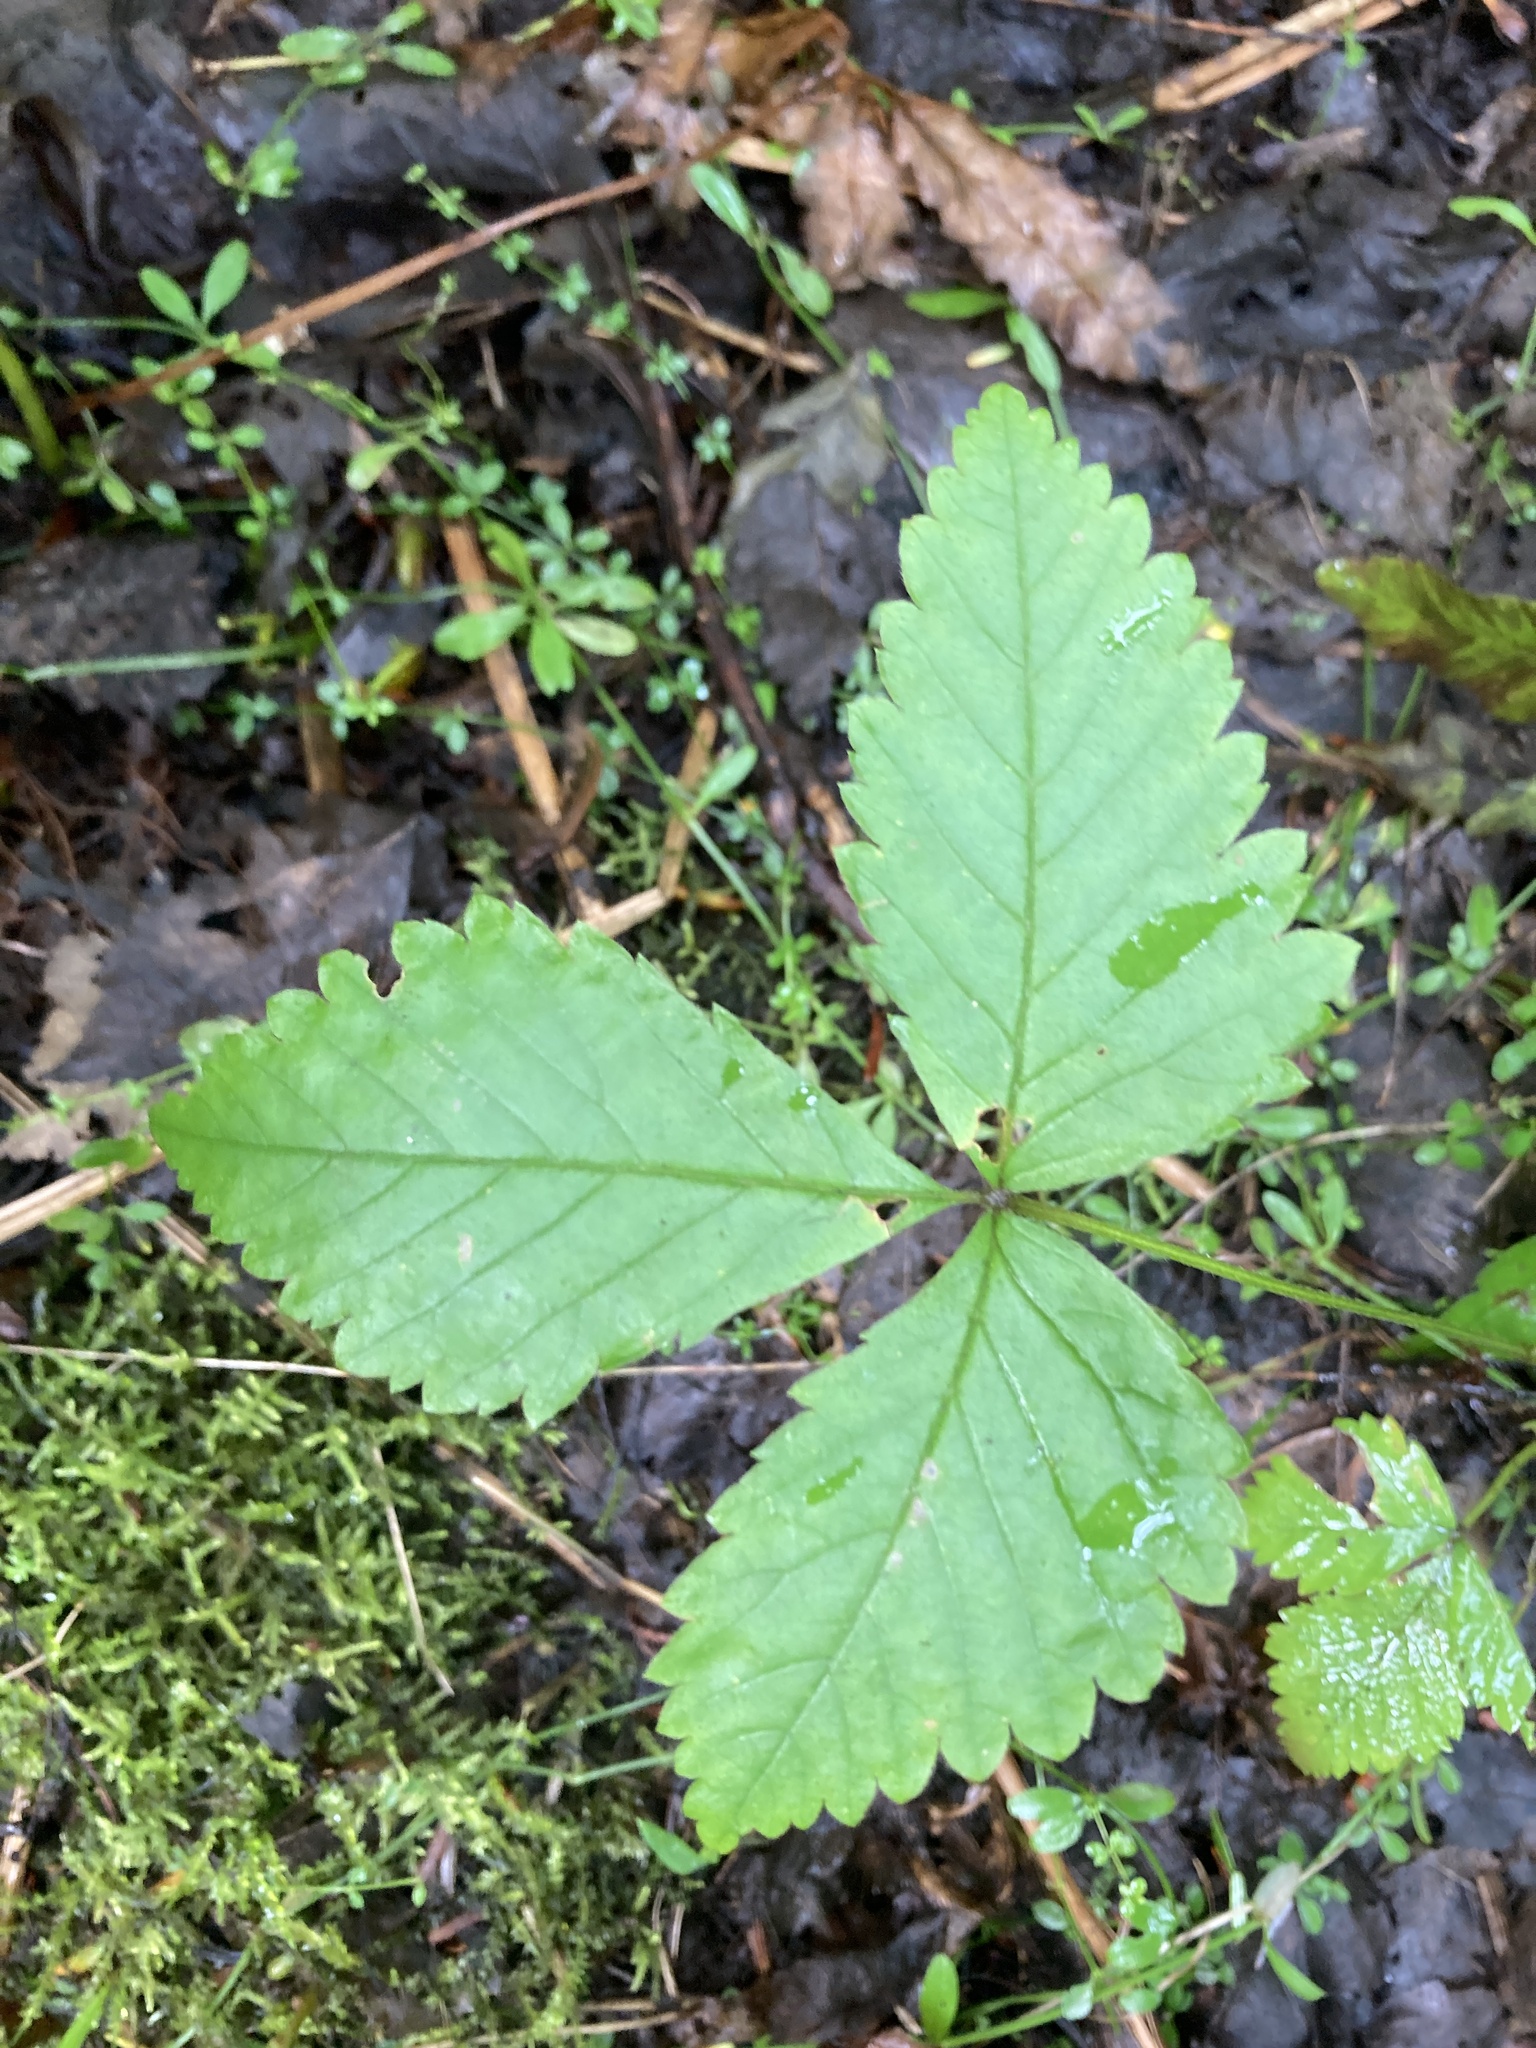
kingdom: Plantae
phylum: Tracheophyta
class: Magnoliopsida
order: Rosales
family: Rosaceae
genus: Rubus
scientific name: Rubus pubescens
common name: Dwarf raspberry
